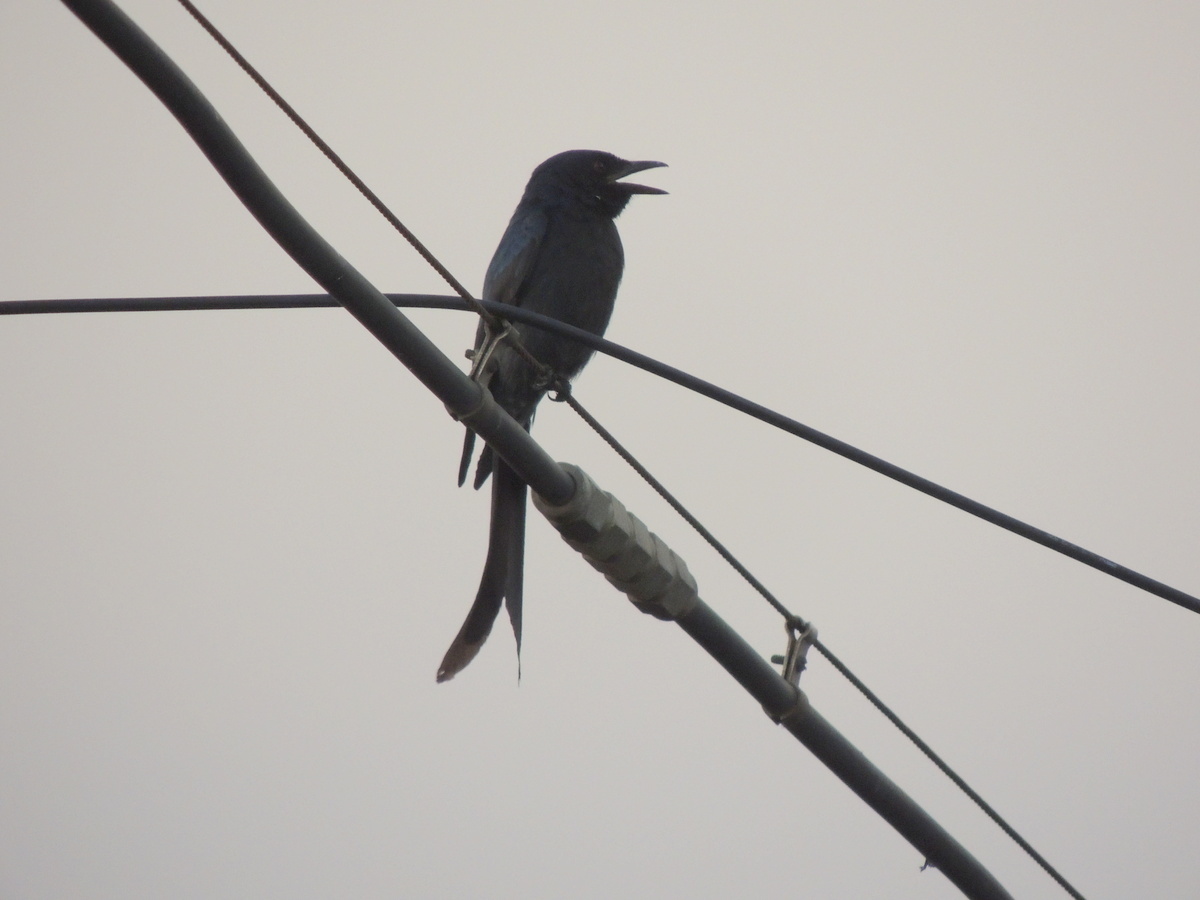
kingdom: Animalia
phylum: Chordata
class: Aves
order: Passeriformes
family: Dicruridae
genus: Dicrurus
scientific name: Dicrurus macrocercus
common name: Black drongo
